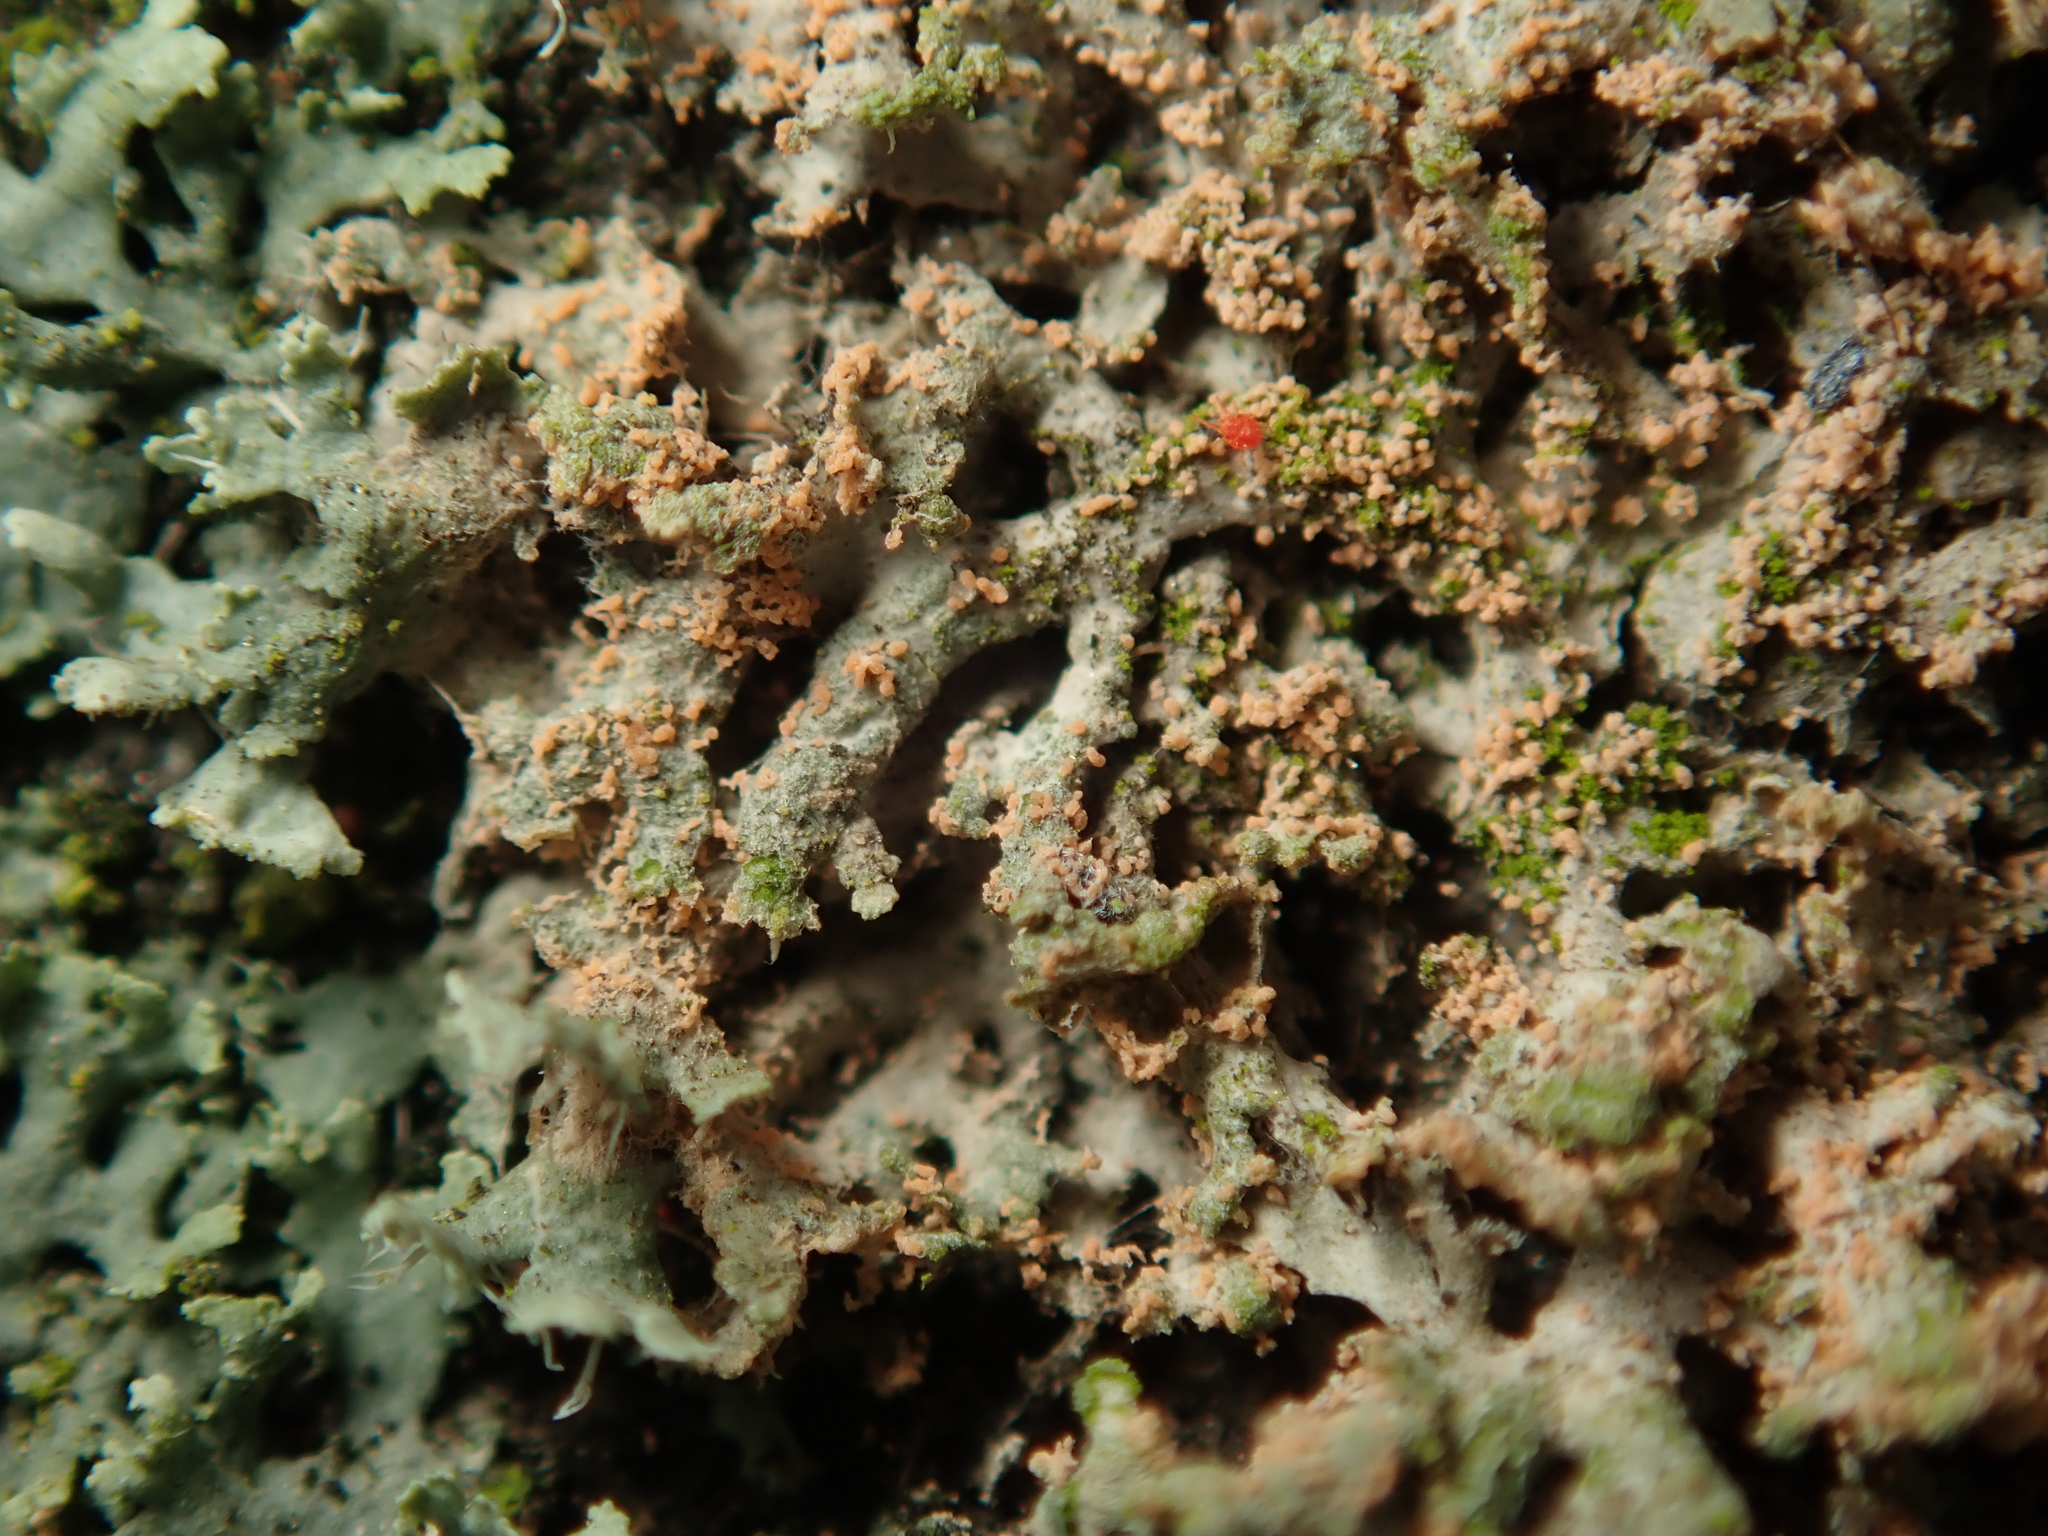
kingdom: Fungi
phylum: Basidiomycota
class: Agaricomycetes
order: Corticiales
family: Corticiaceae
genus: Erythricium
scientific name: Erythricium aurantiacum
